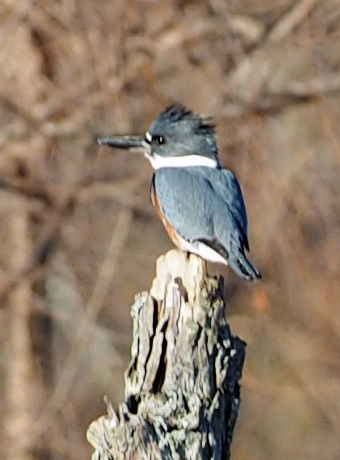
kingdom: Animalia
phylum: Chordata
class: Aves
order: Coraciiformes
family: Alcedinidae
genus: Megaceryle
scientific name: Megaceryle alcyon
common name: Belted kingfisher
